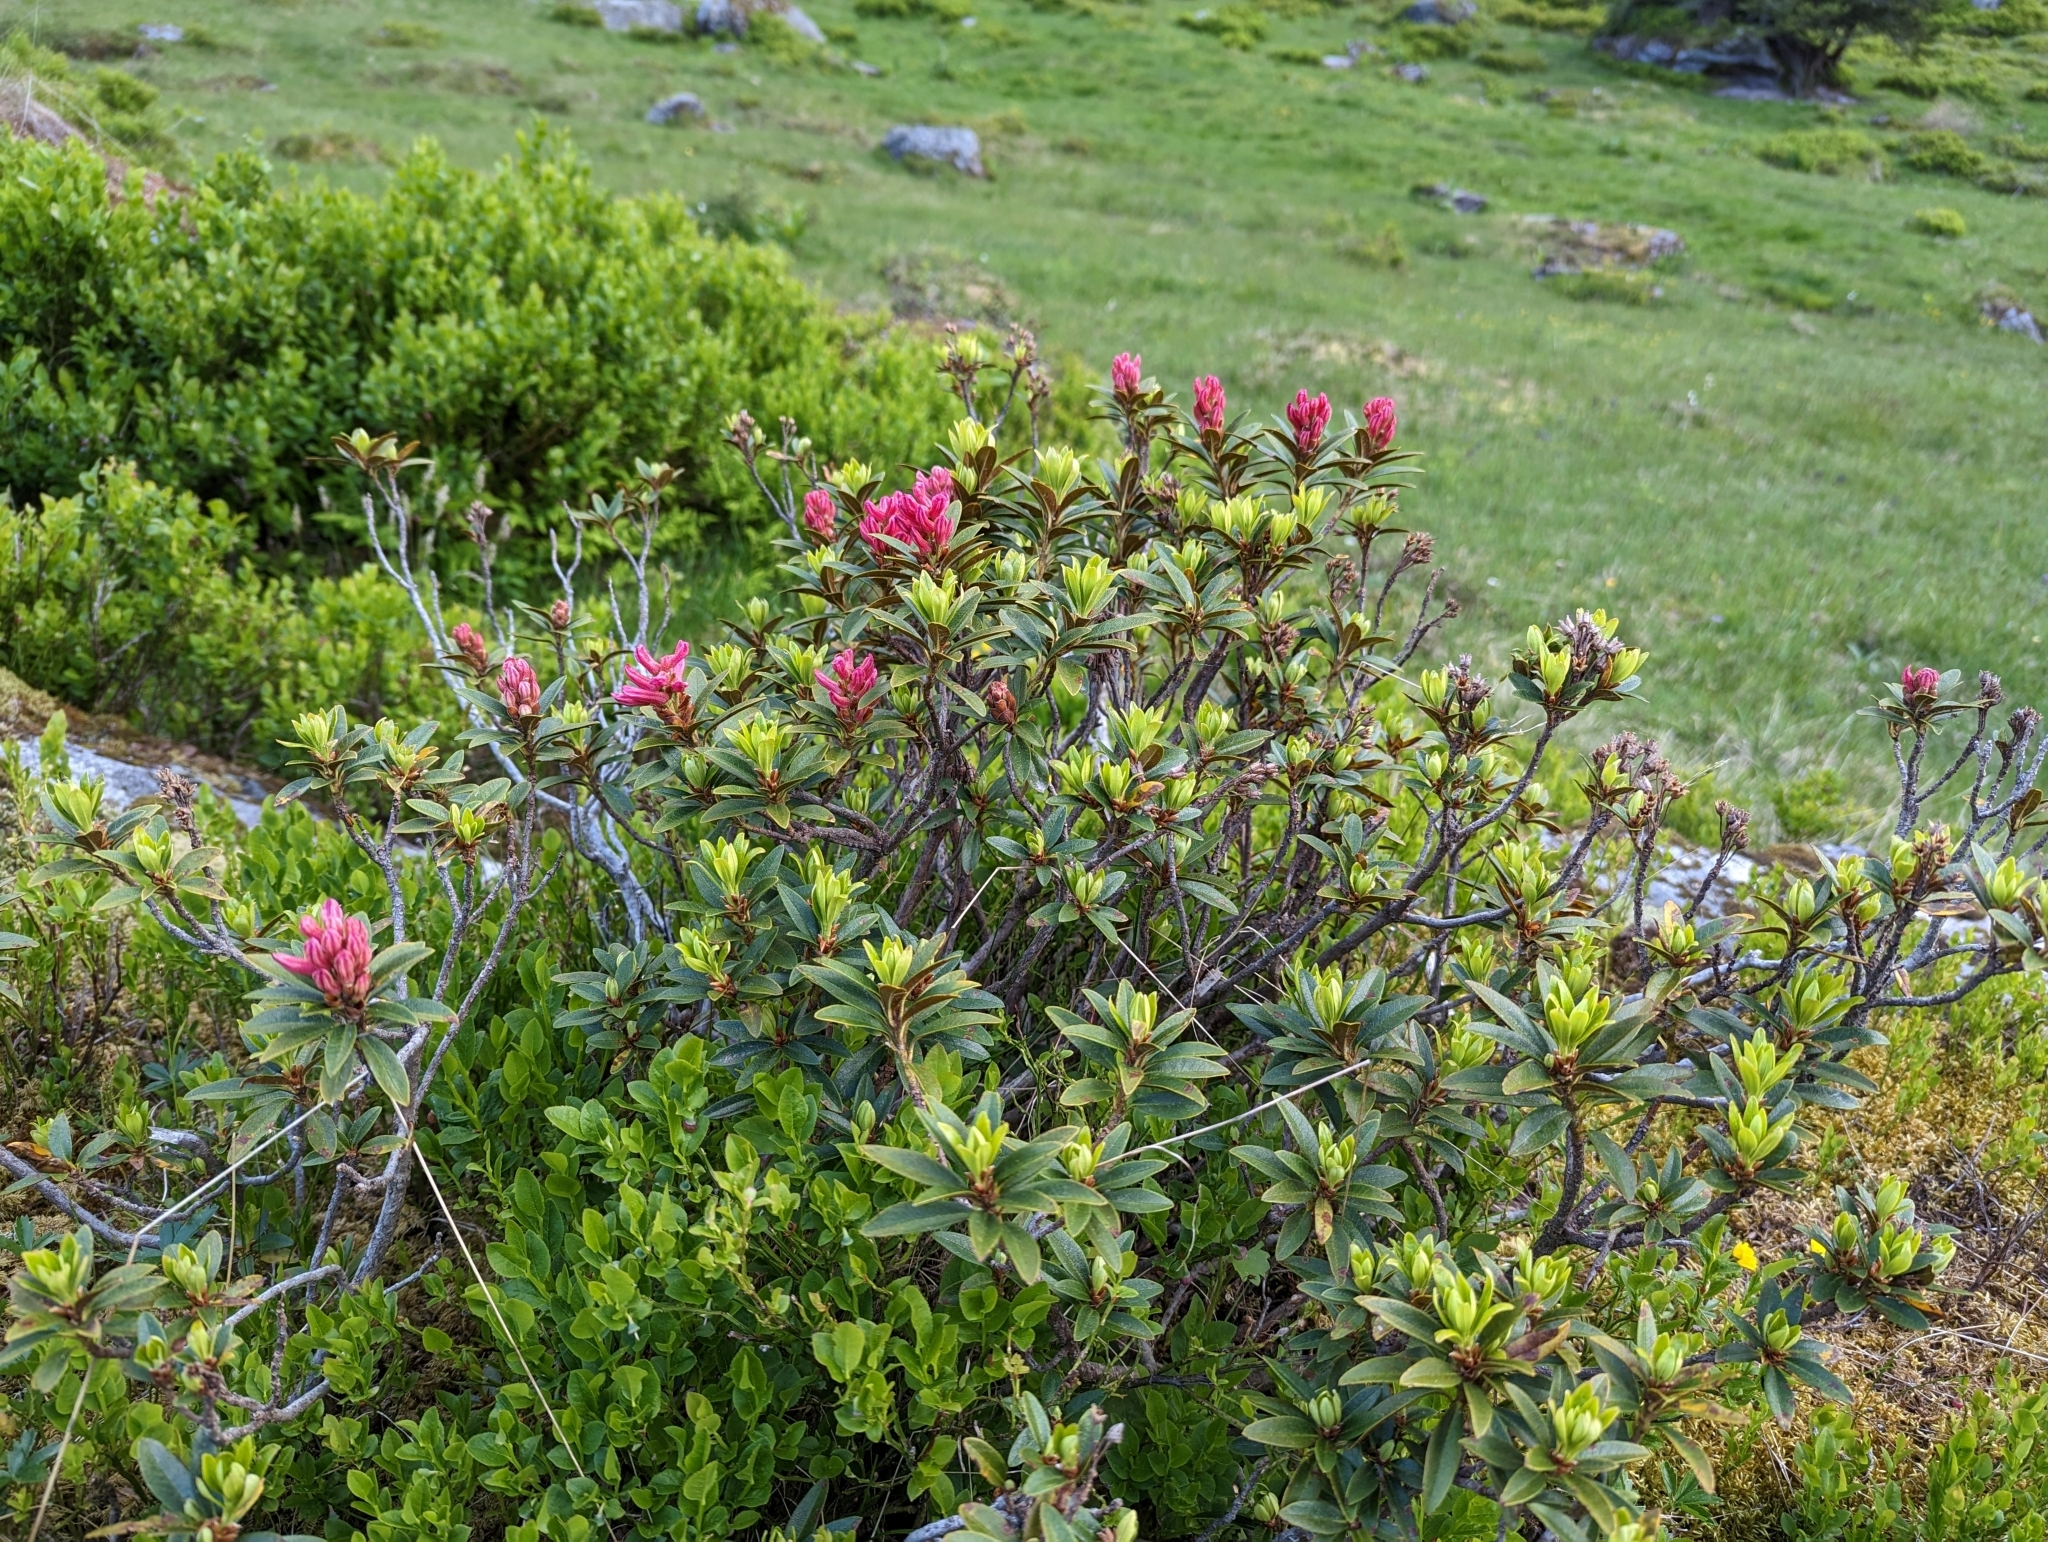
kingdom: Plantae
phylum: Tracheophyta
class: Magnoliopsida
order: Ericales
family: Ericaceae
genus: Rhododendron
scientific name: Rhododendron ferrugineum
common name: Alpenrose
